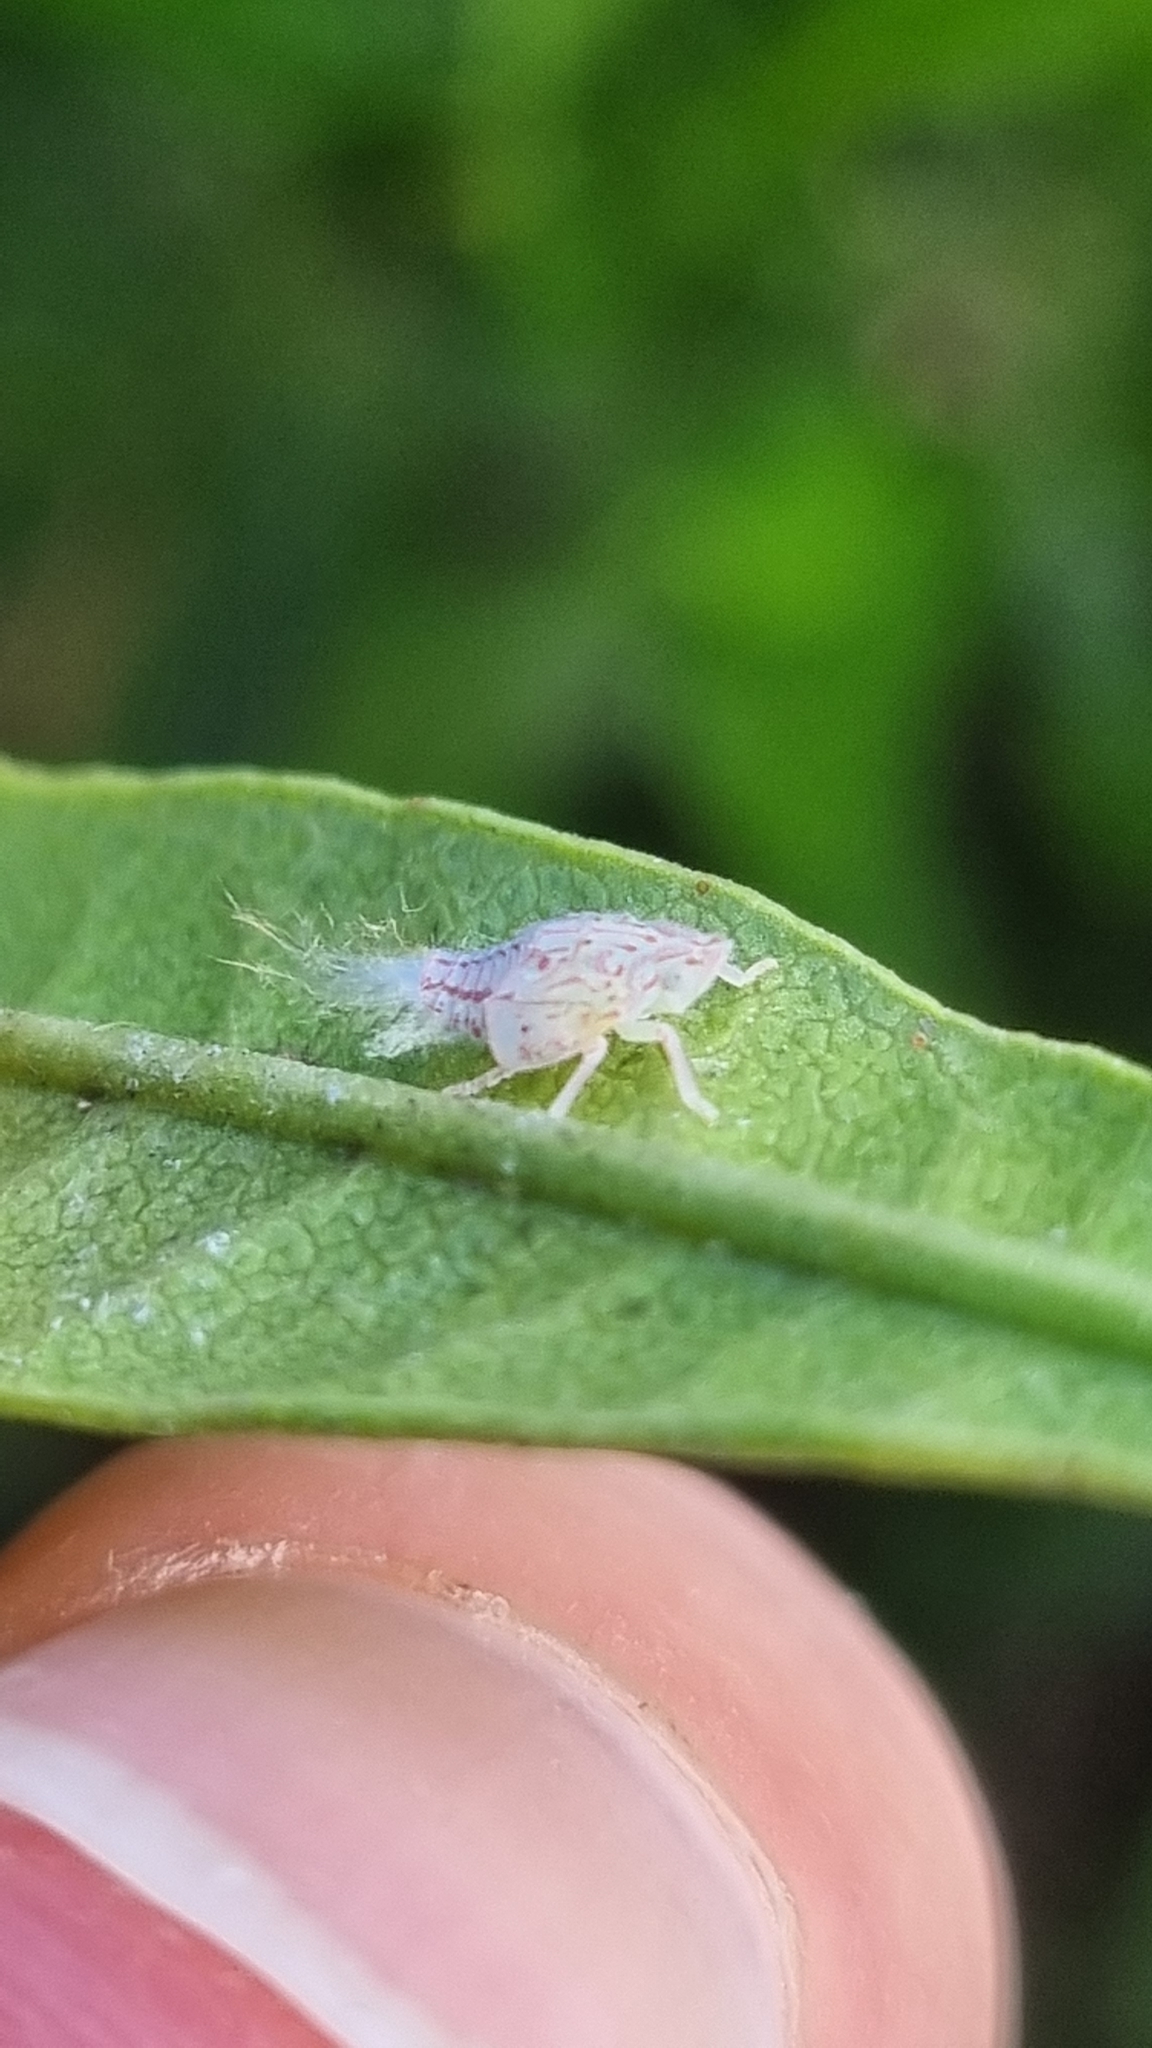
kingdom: Animalia
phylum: Arthropoda
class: Insecta
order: Hemiptera
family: Flatidae
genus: Siphanta
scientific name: Siphanta acuta
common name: Torpedo bug
